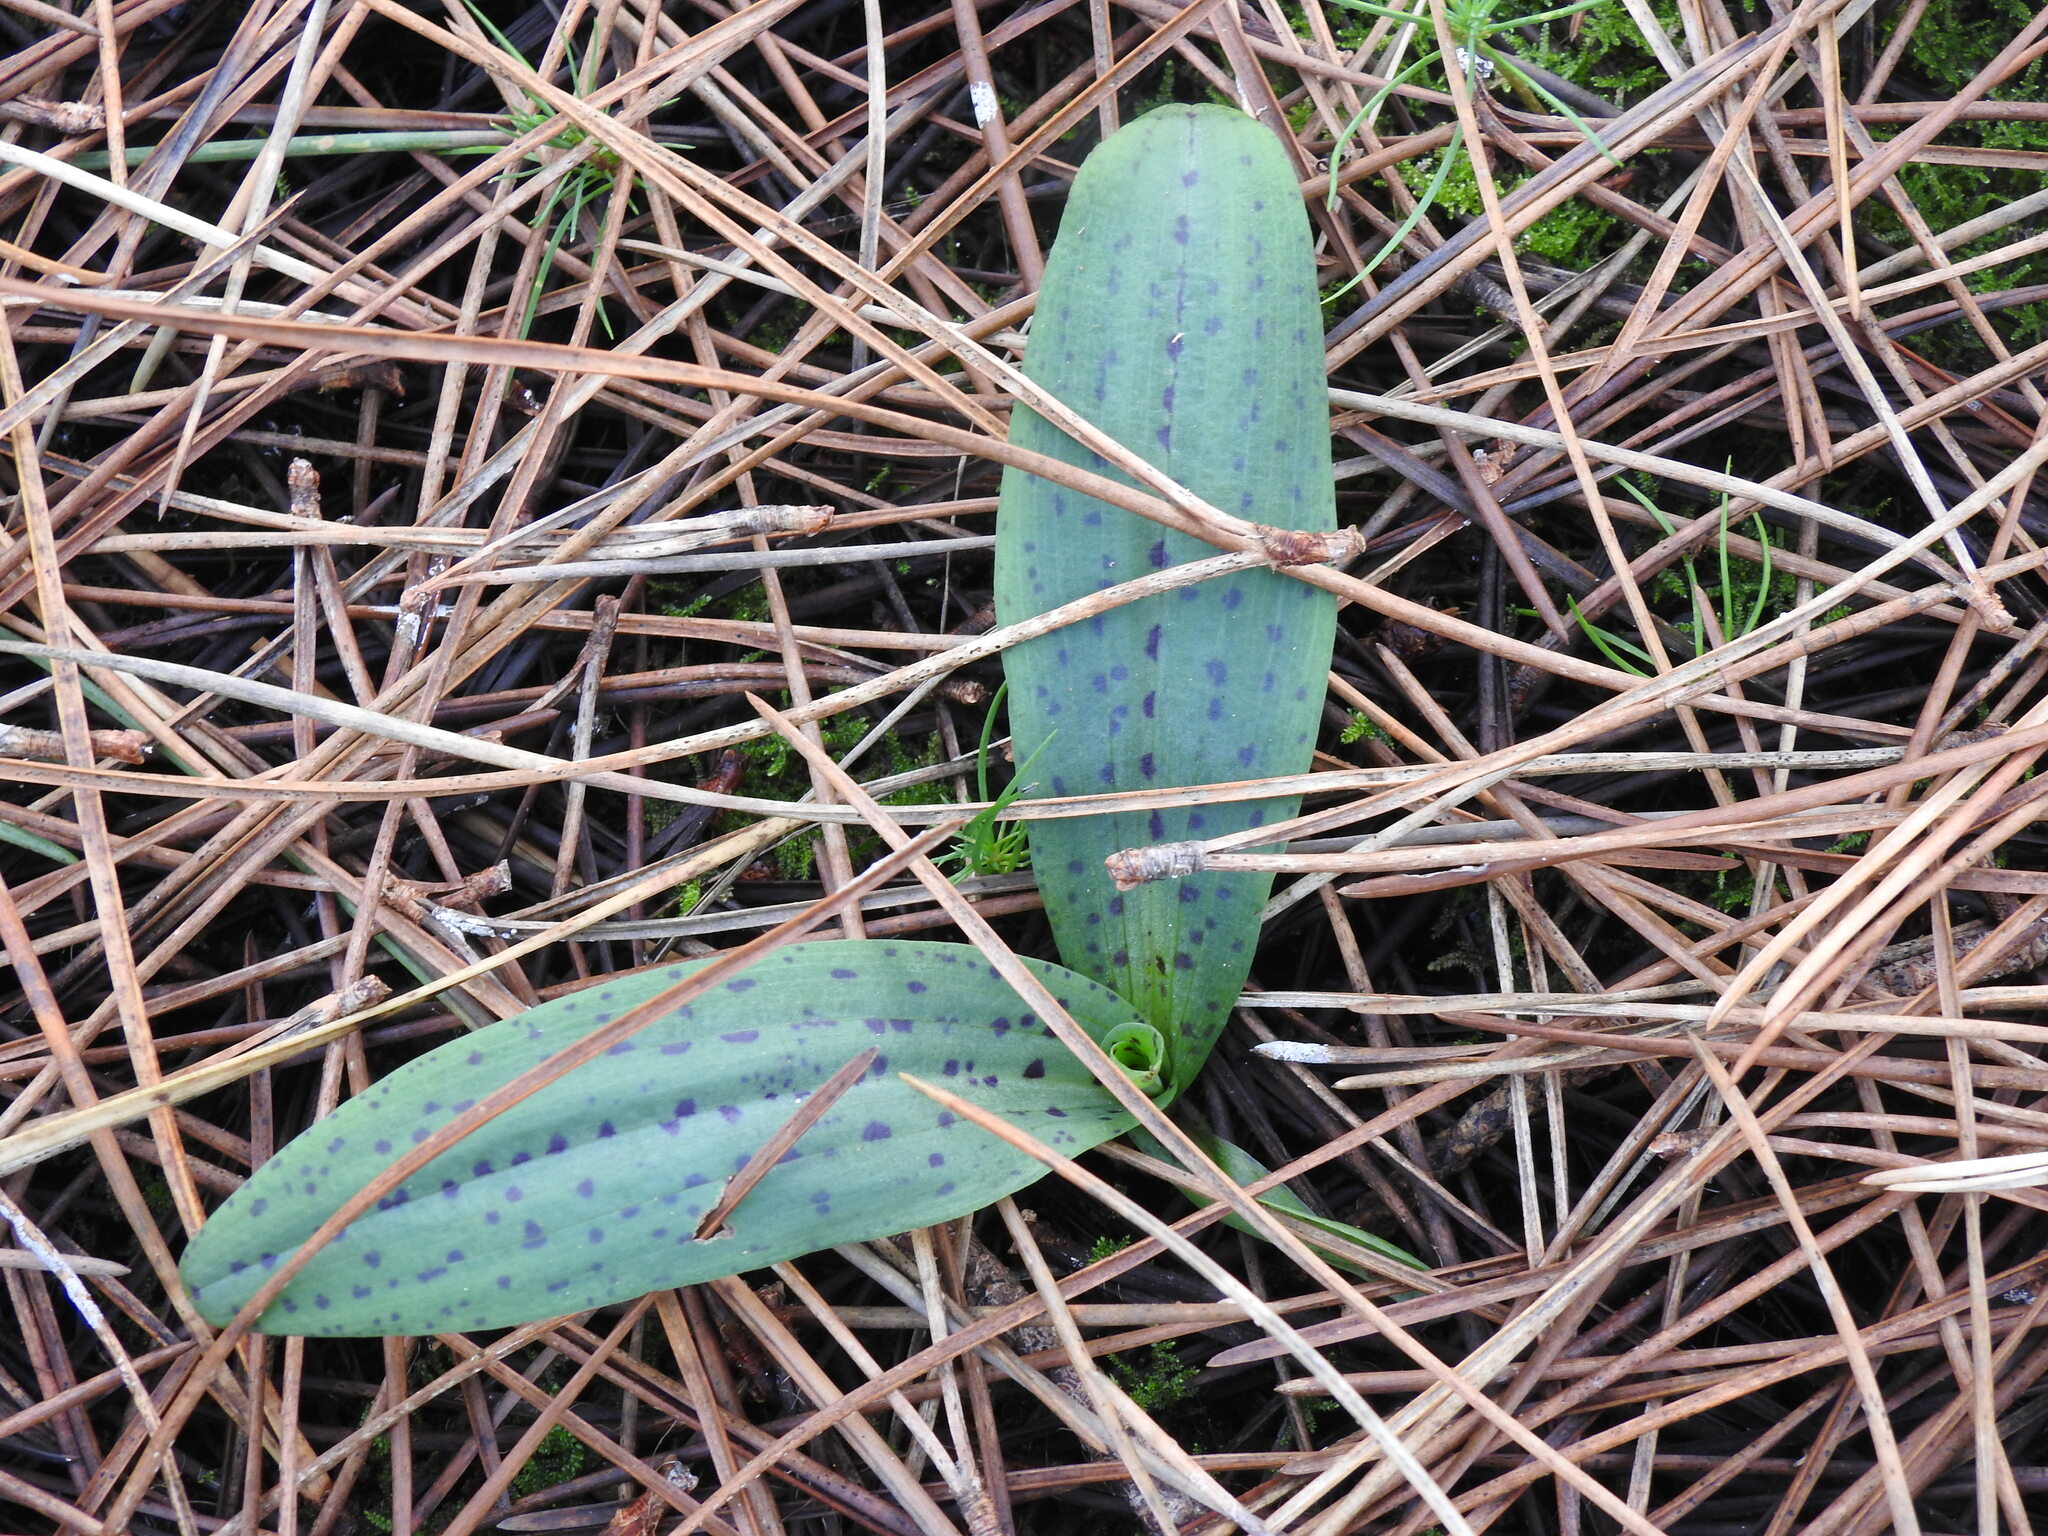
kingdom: Plantae
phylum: Tracheophyta
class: Liliopsida
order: Asparagales
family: Orchidaceae
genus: Neotinea
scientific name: Neotinea maculata
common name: Dense-flowered orchid
